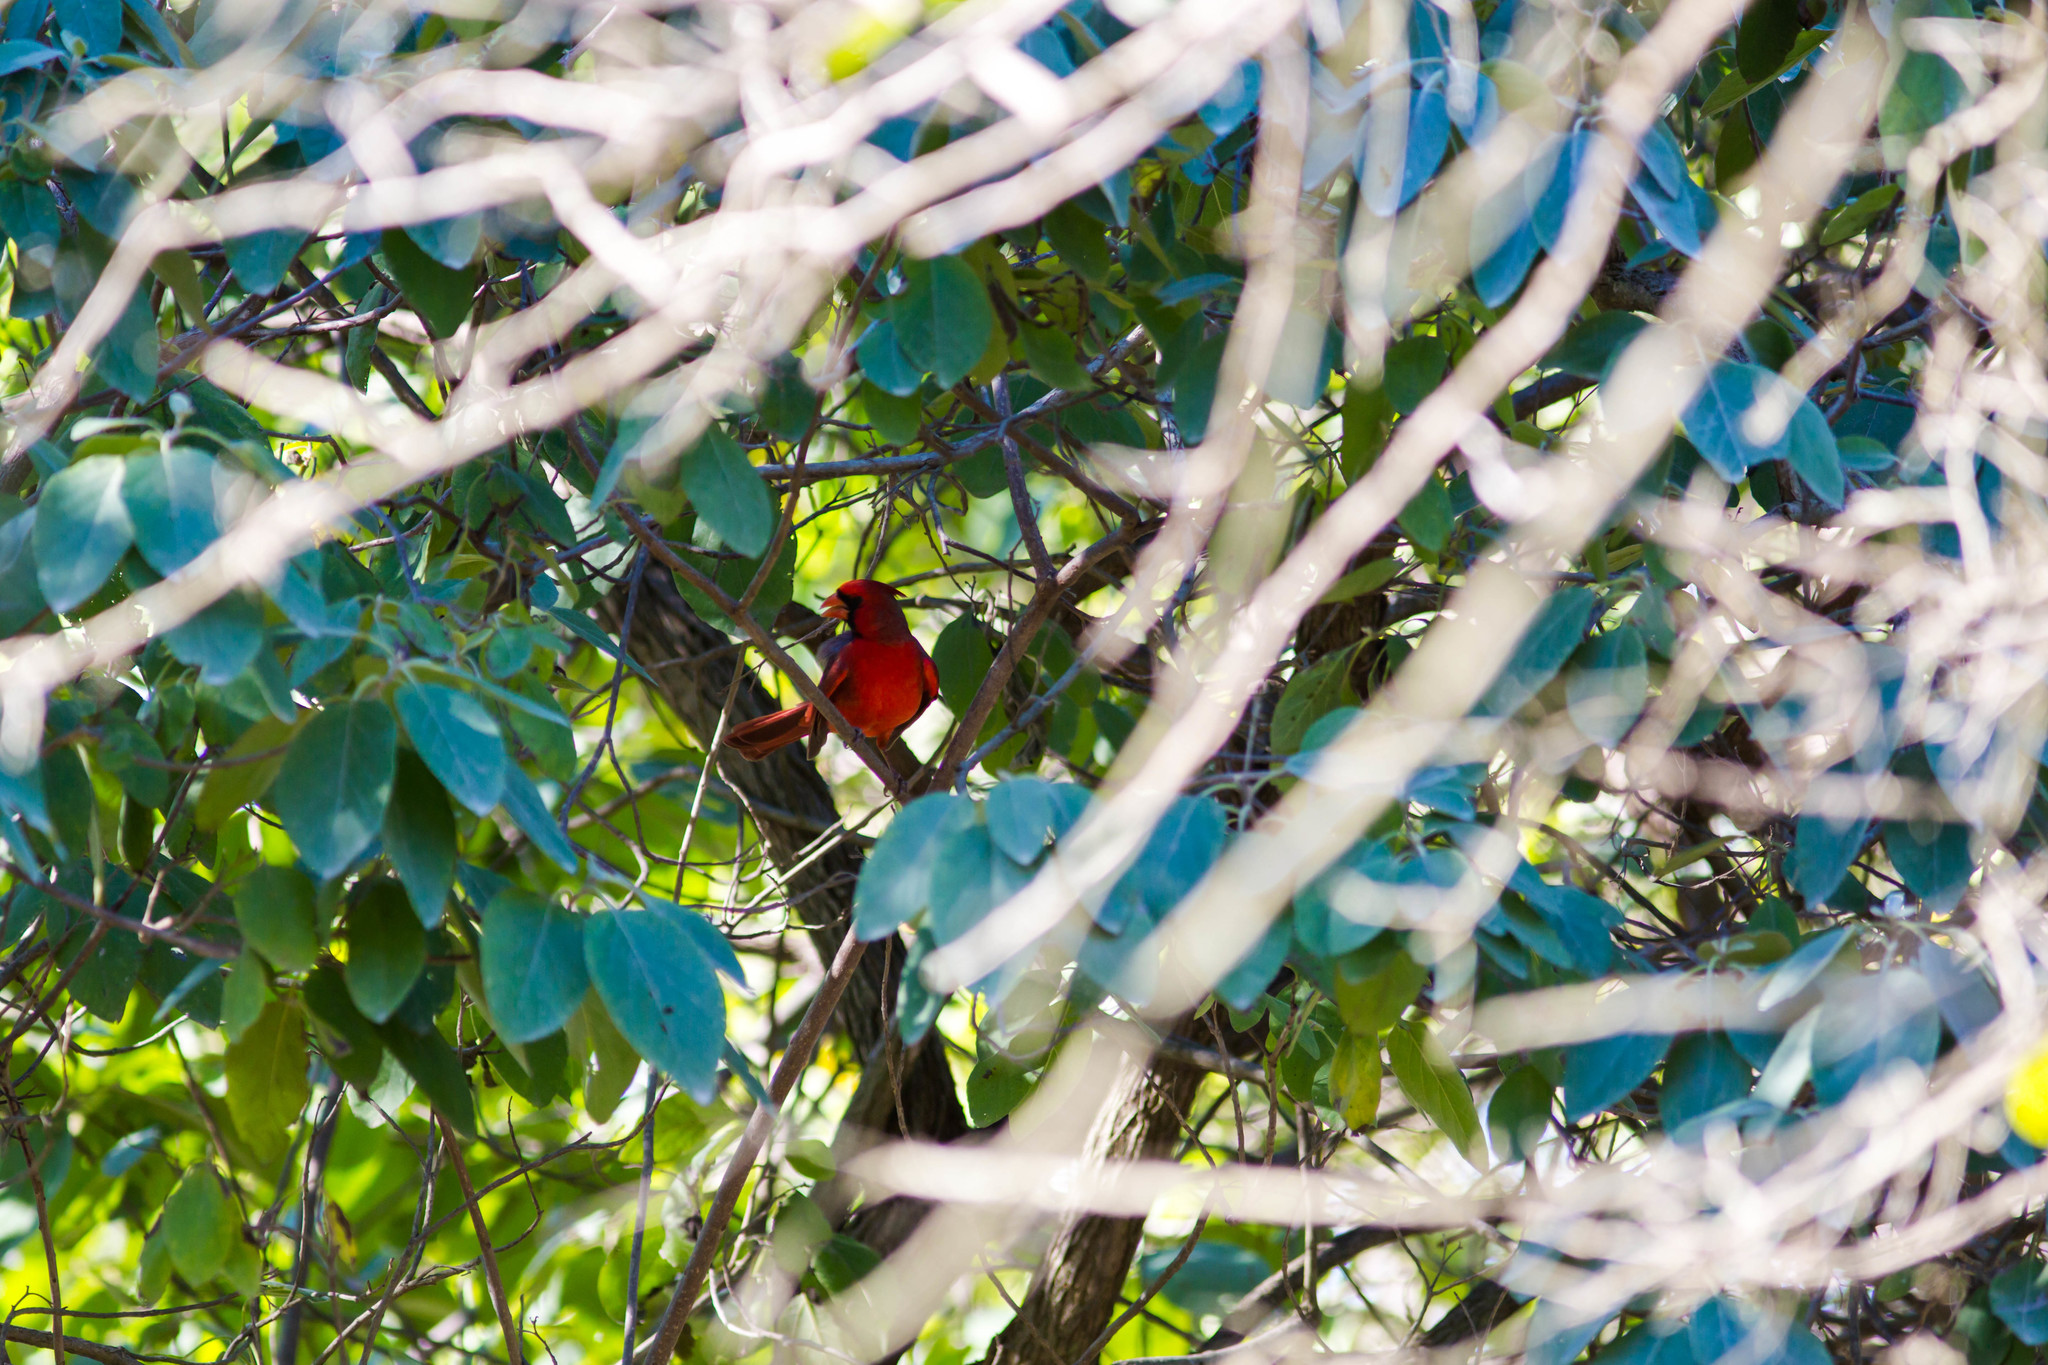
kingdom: Animalia
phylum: Chordata
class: Aves
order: Passeriformes
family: Cardinalidae
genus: Cardinalis
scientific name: Cardinalis cardinalis
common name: Northern cardinal
